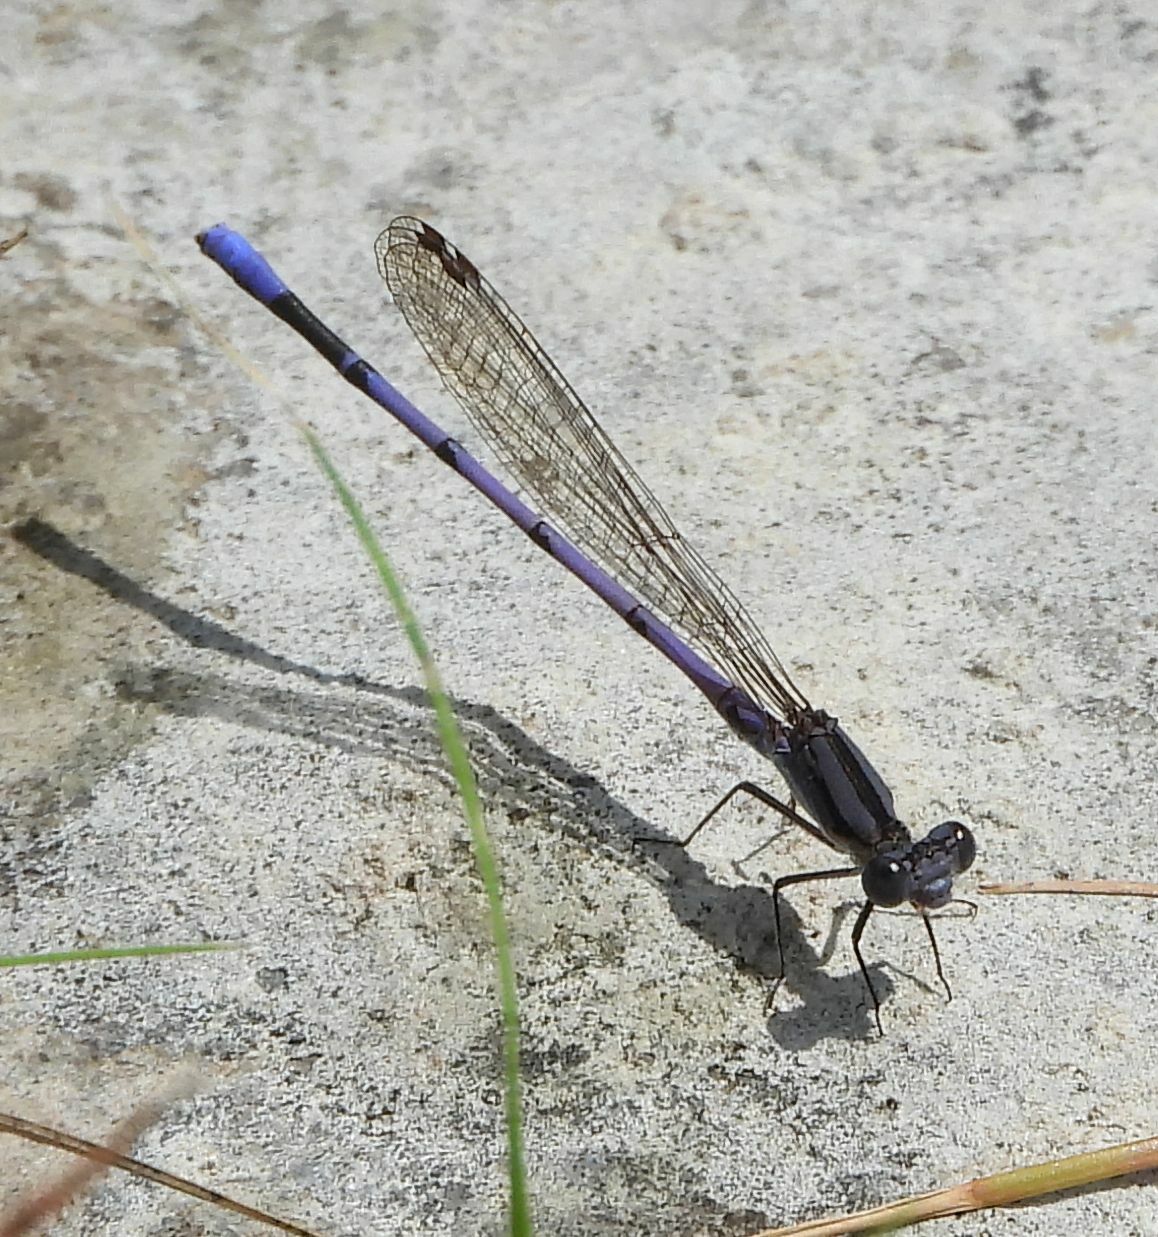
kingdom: Animalia
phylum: Arthropoda
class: Insecta
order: Odonata
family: Coenagrionidae
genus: Argia
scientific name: Argia fumipennis
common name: Variable dancer
